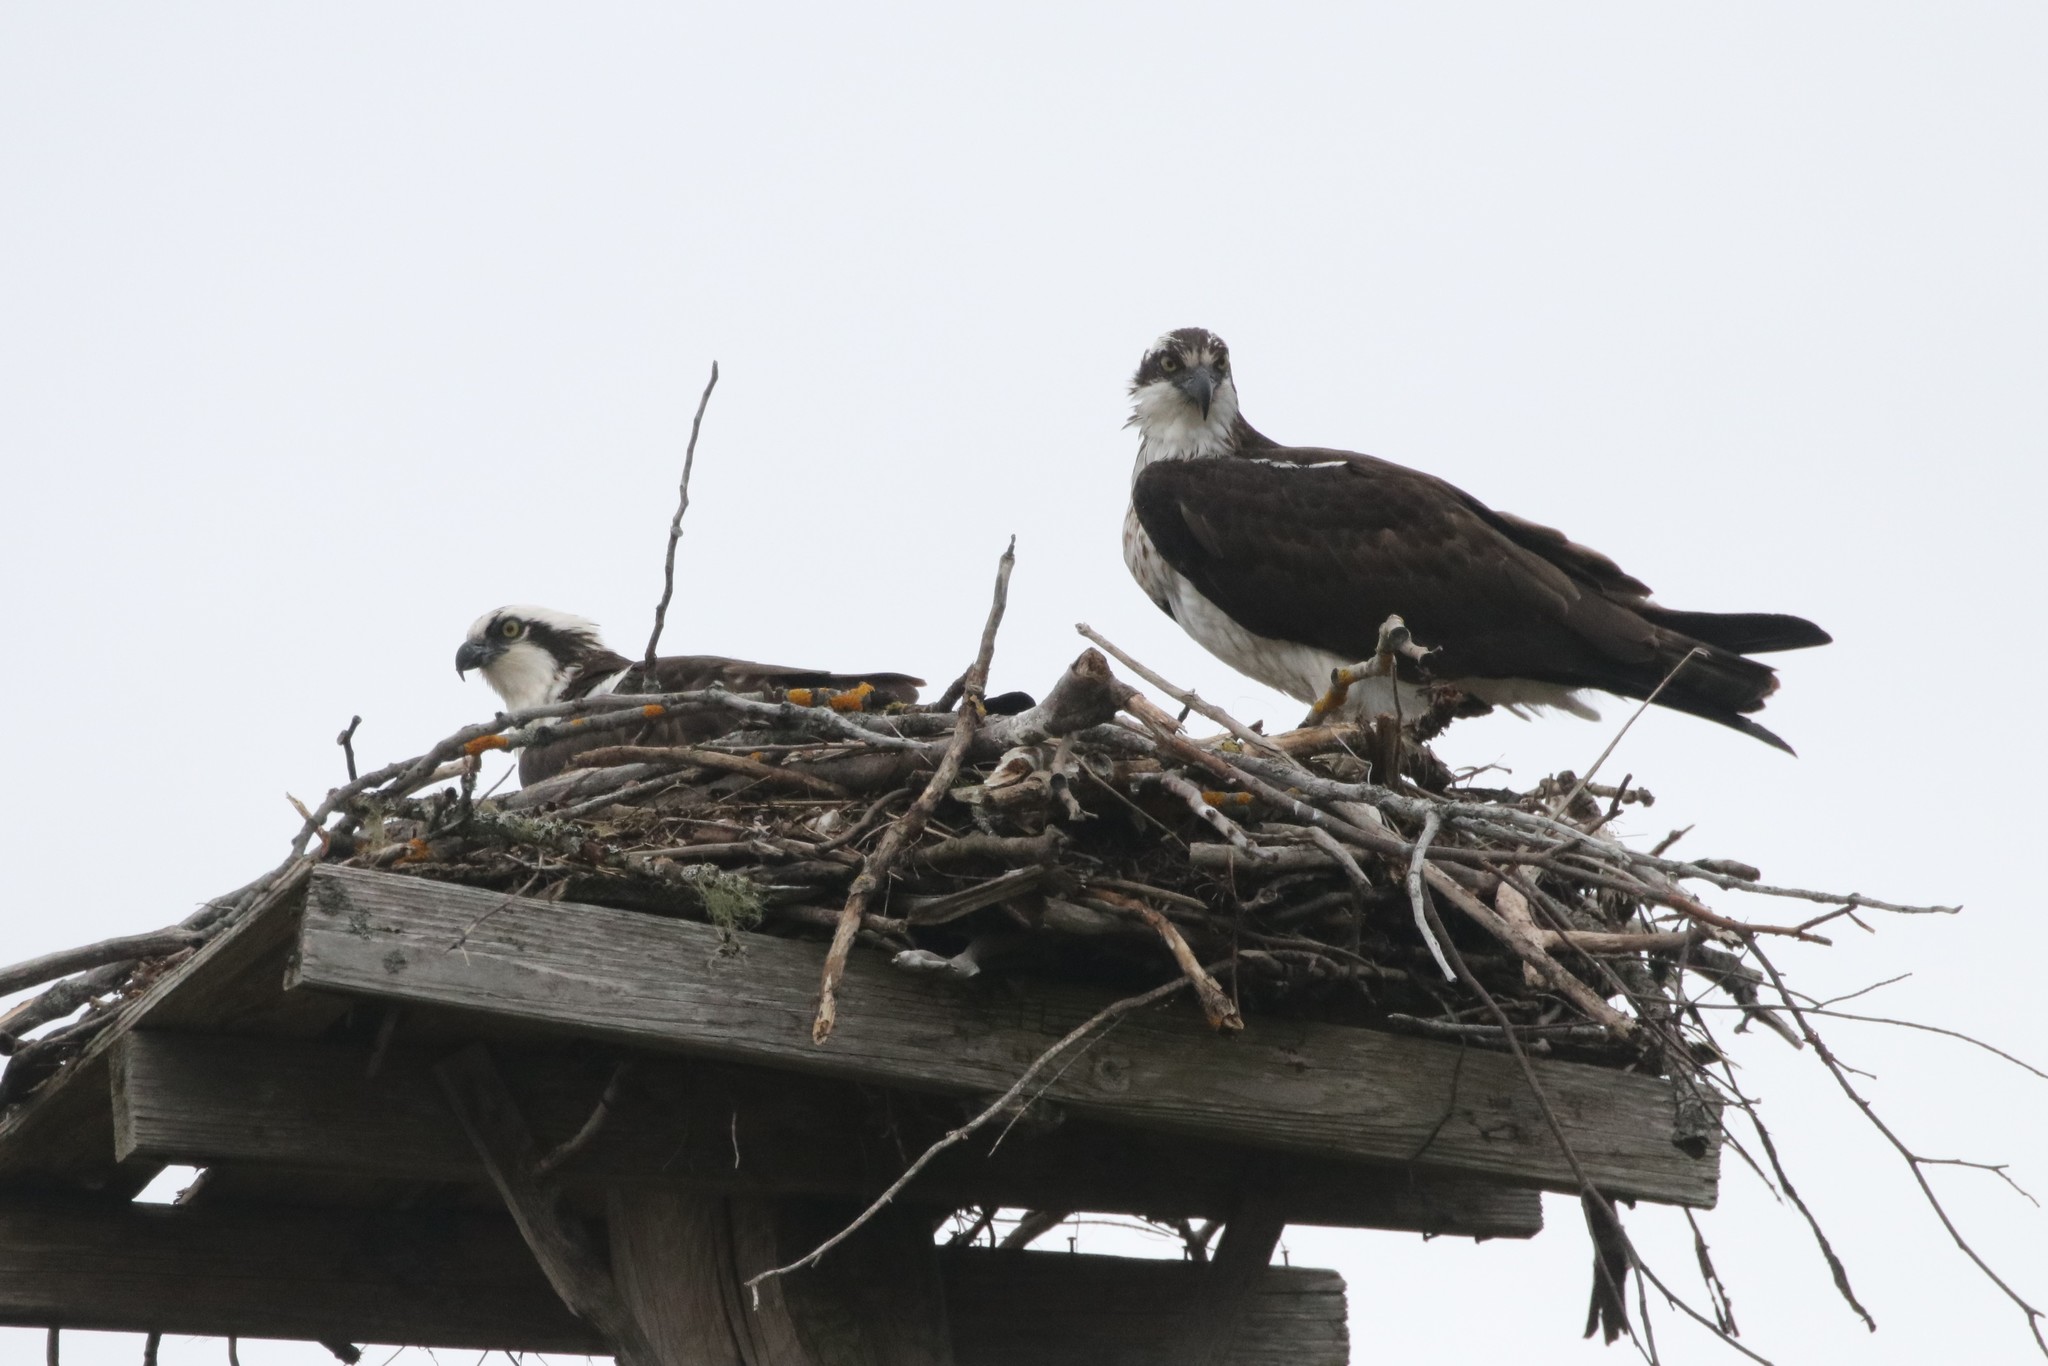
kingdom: Animalia
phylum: Chordata
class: Aves
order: Accipitriformes
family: Pandionidae
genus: Pandion
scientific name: Pandion haliaetus
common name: Osprey
